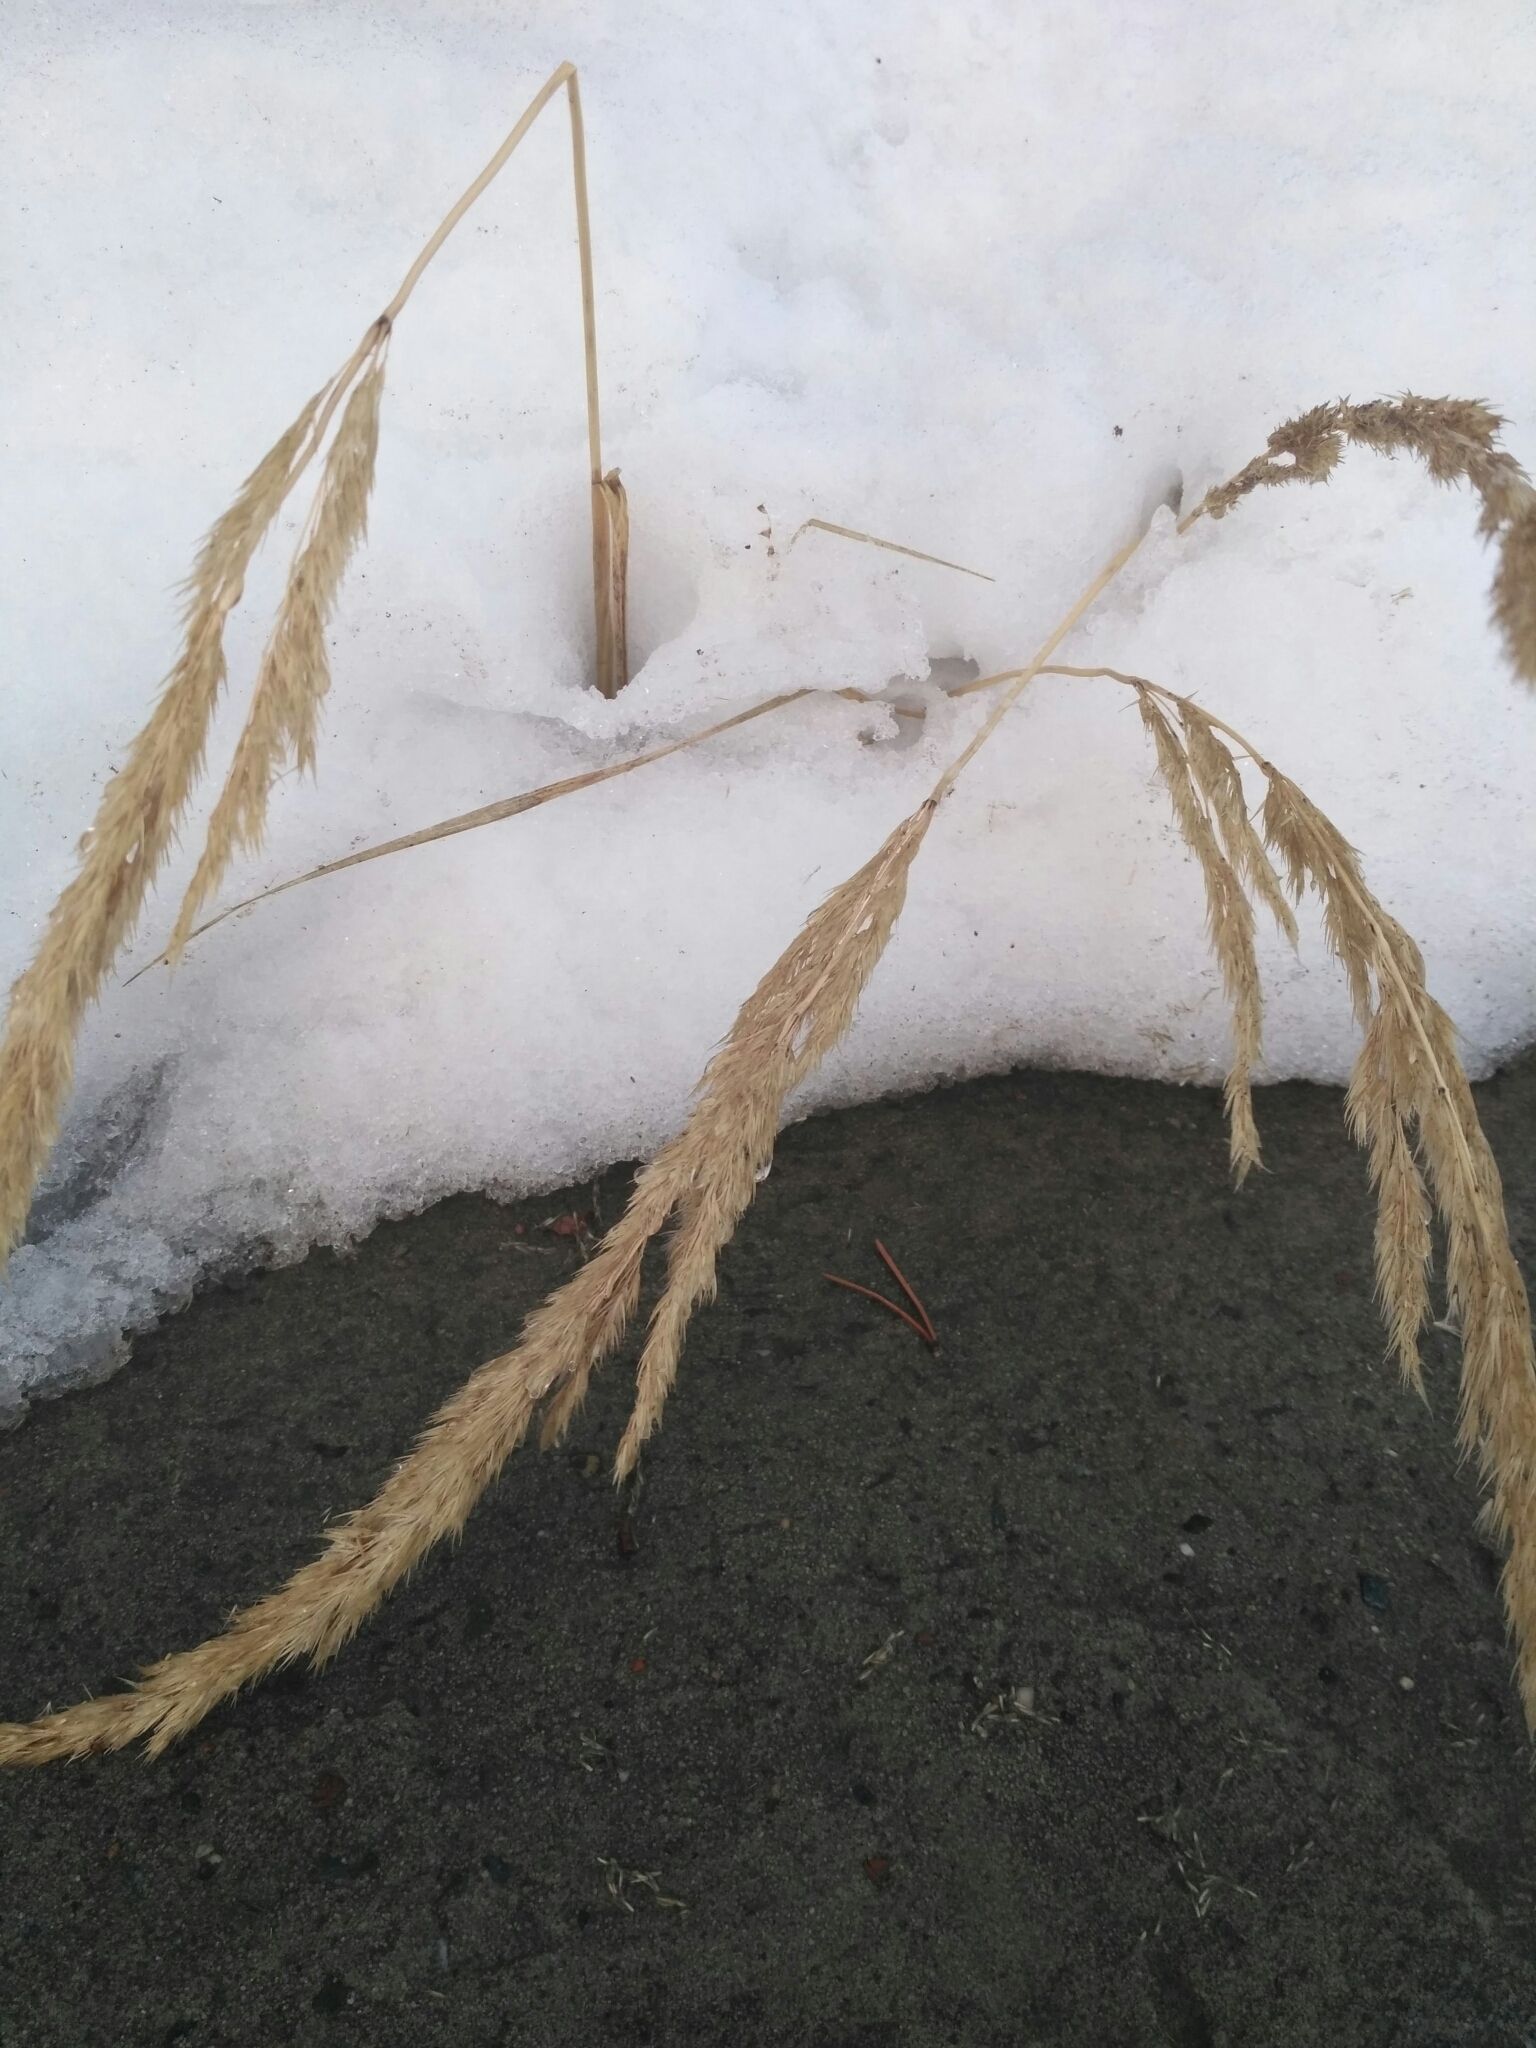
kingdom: Plantae
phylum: Tracheophyta
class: Liliopsida
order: Poales
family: Poaceae
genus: Calamagrostis
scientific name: Calamagrostis epigejos
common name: Wood small-reed
